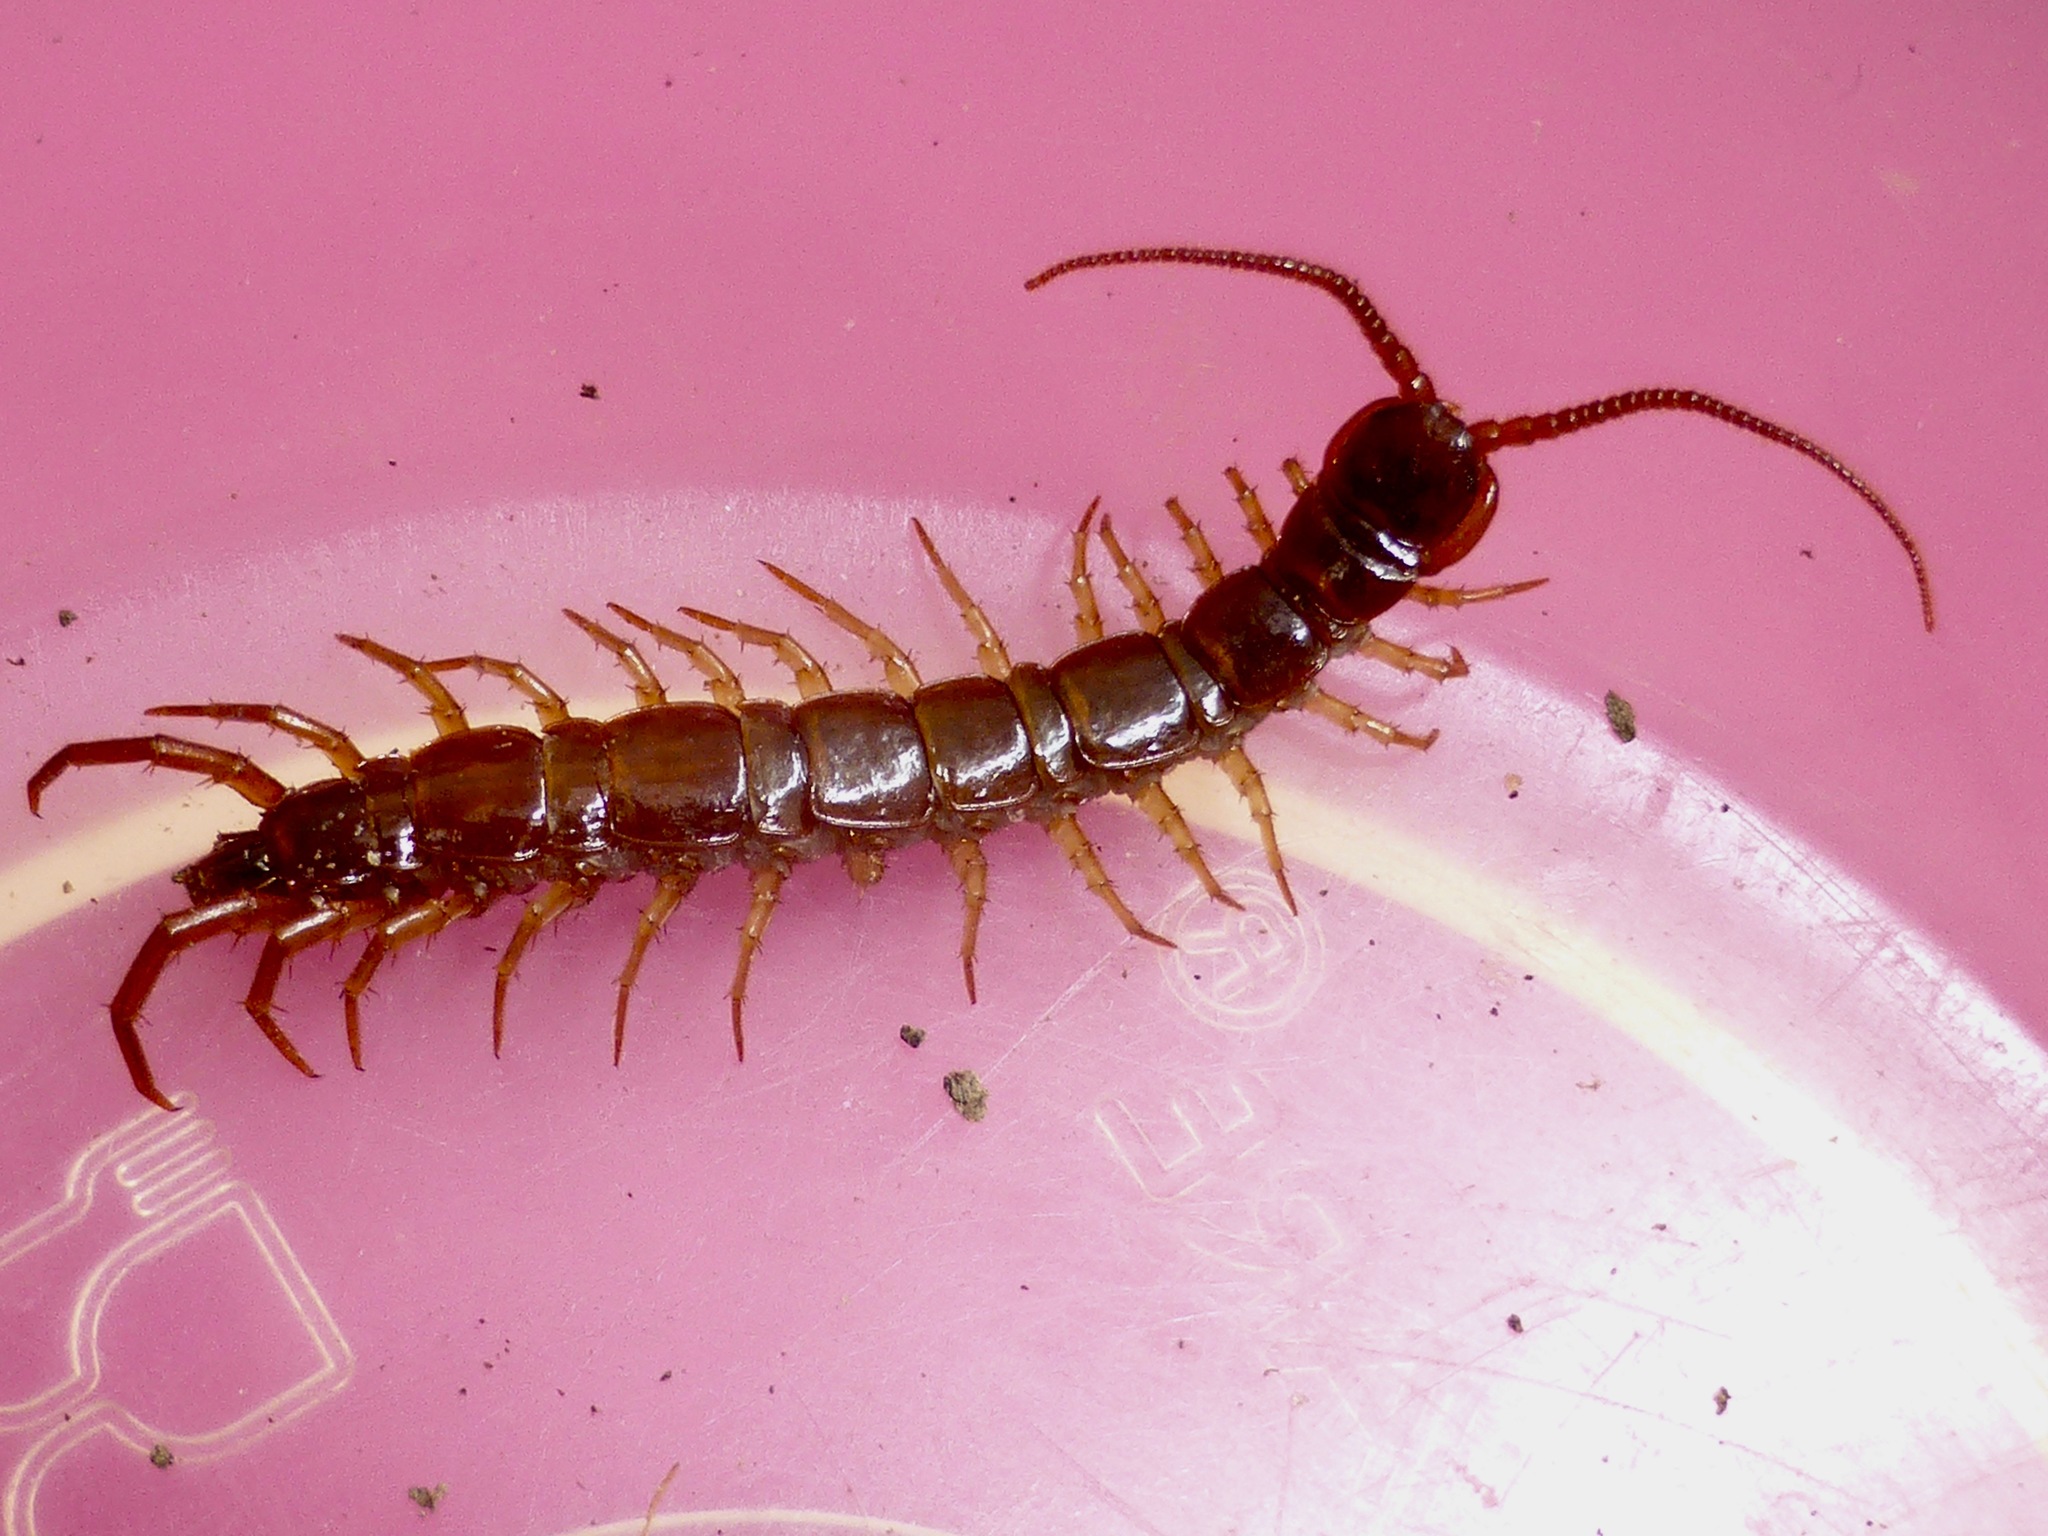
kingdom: Animalia
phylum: Arthropoda
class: Chilopoda
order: Lithobiomorpha
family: Lithobiidae
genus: Lithobius
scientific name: Lithobius forficatus
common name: Centipede
